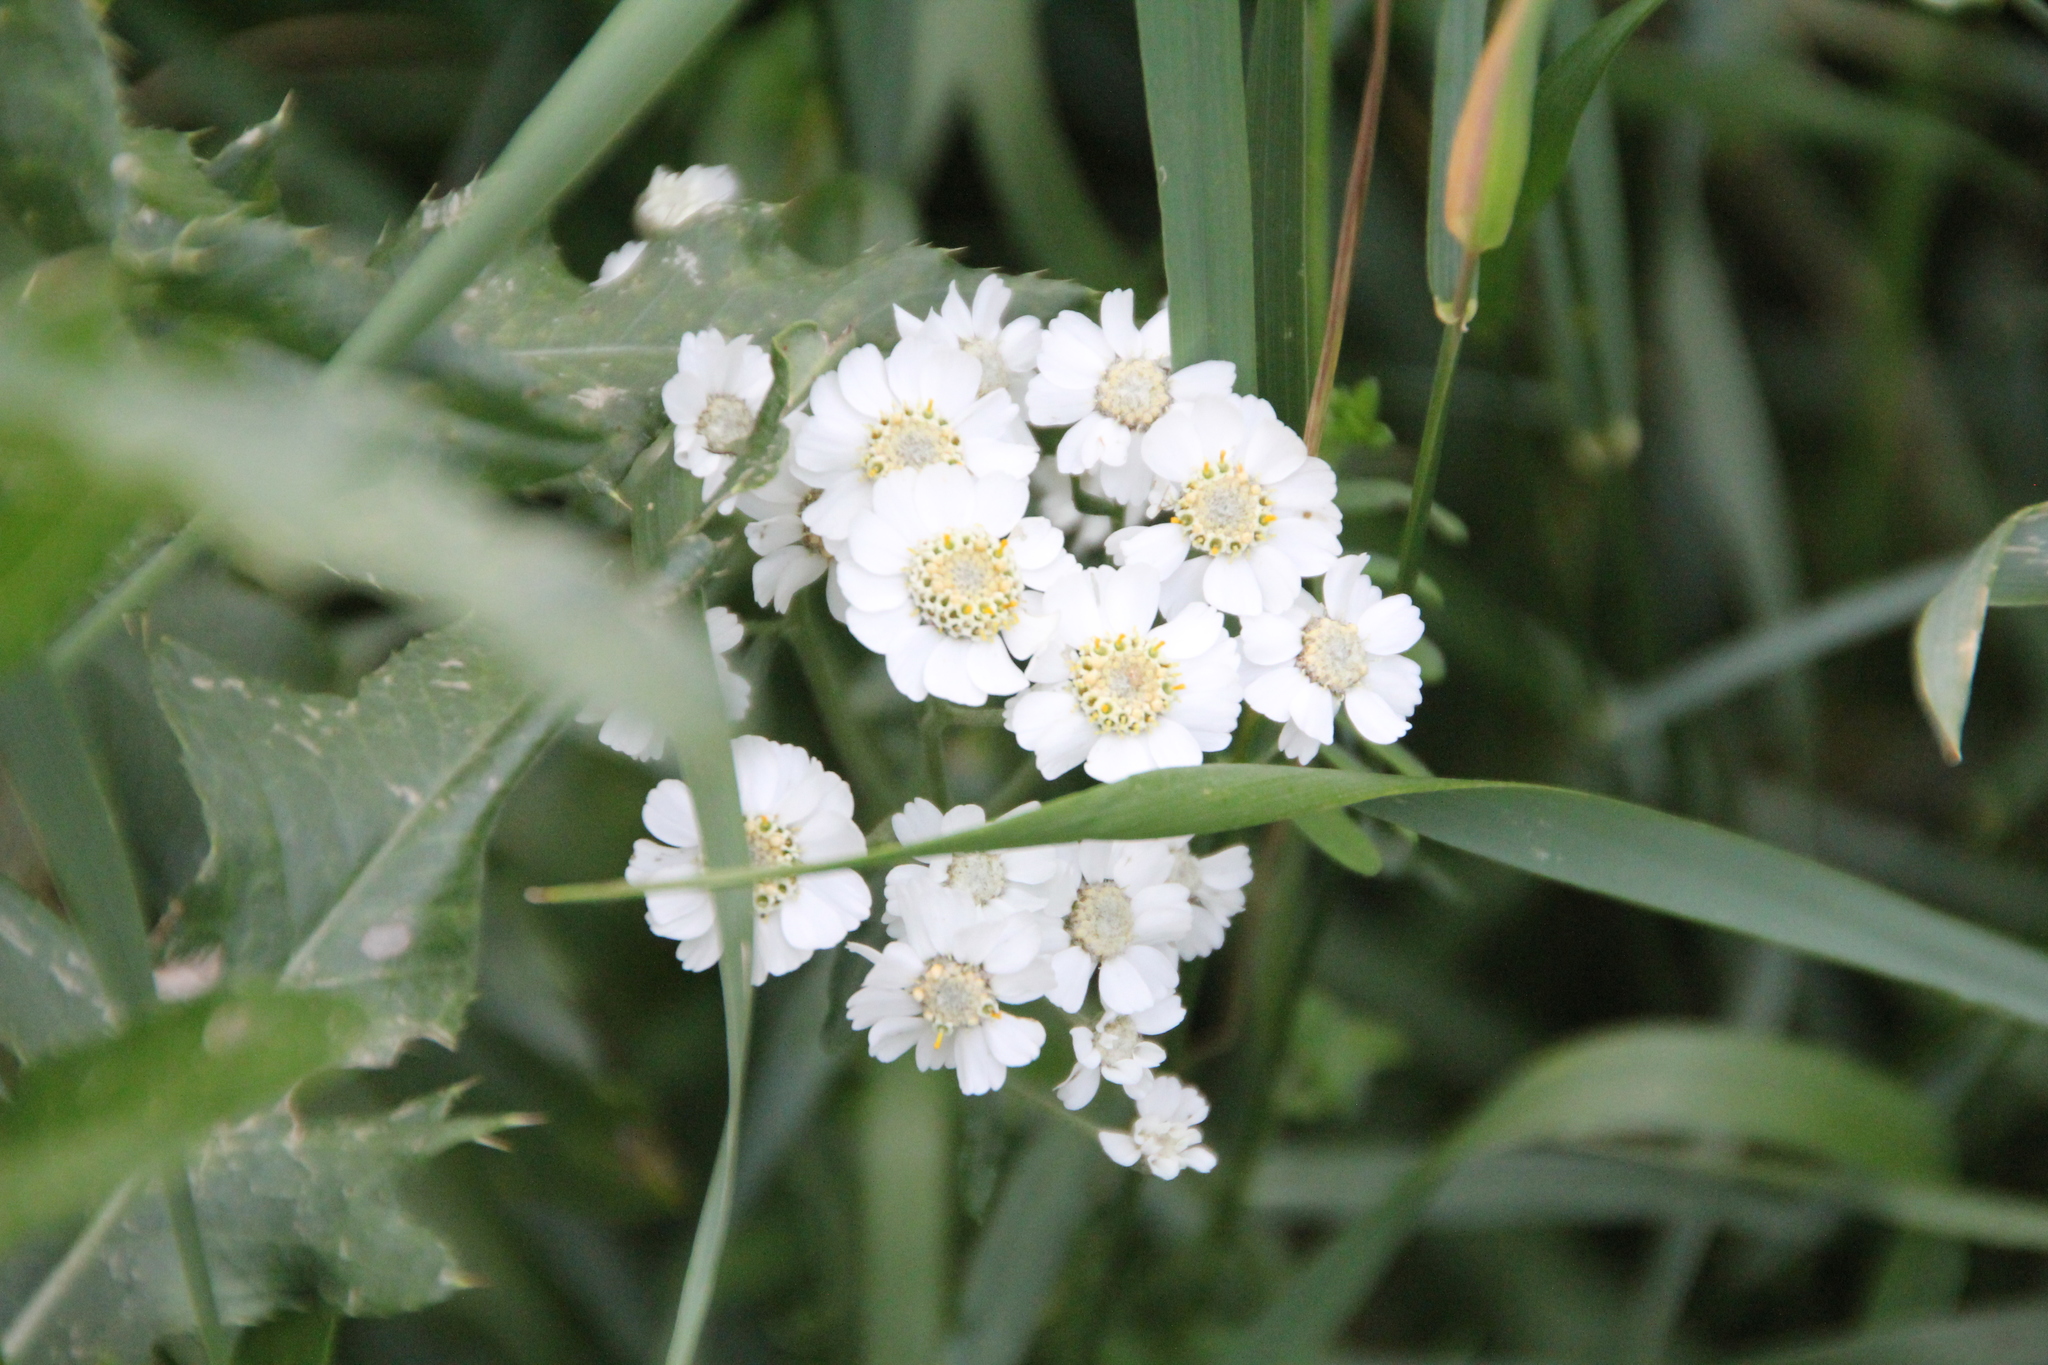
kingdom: Plantae
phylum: Tracheophyta
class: Magnoliopsida
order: Asterales
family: Asteraceae
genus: Achillea
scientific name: Achillea ptarmica
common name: Sneezeweed
